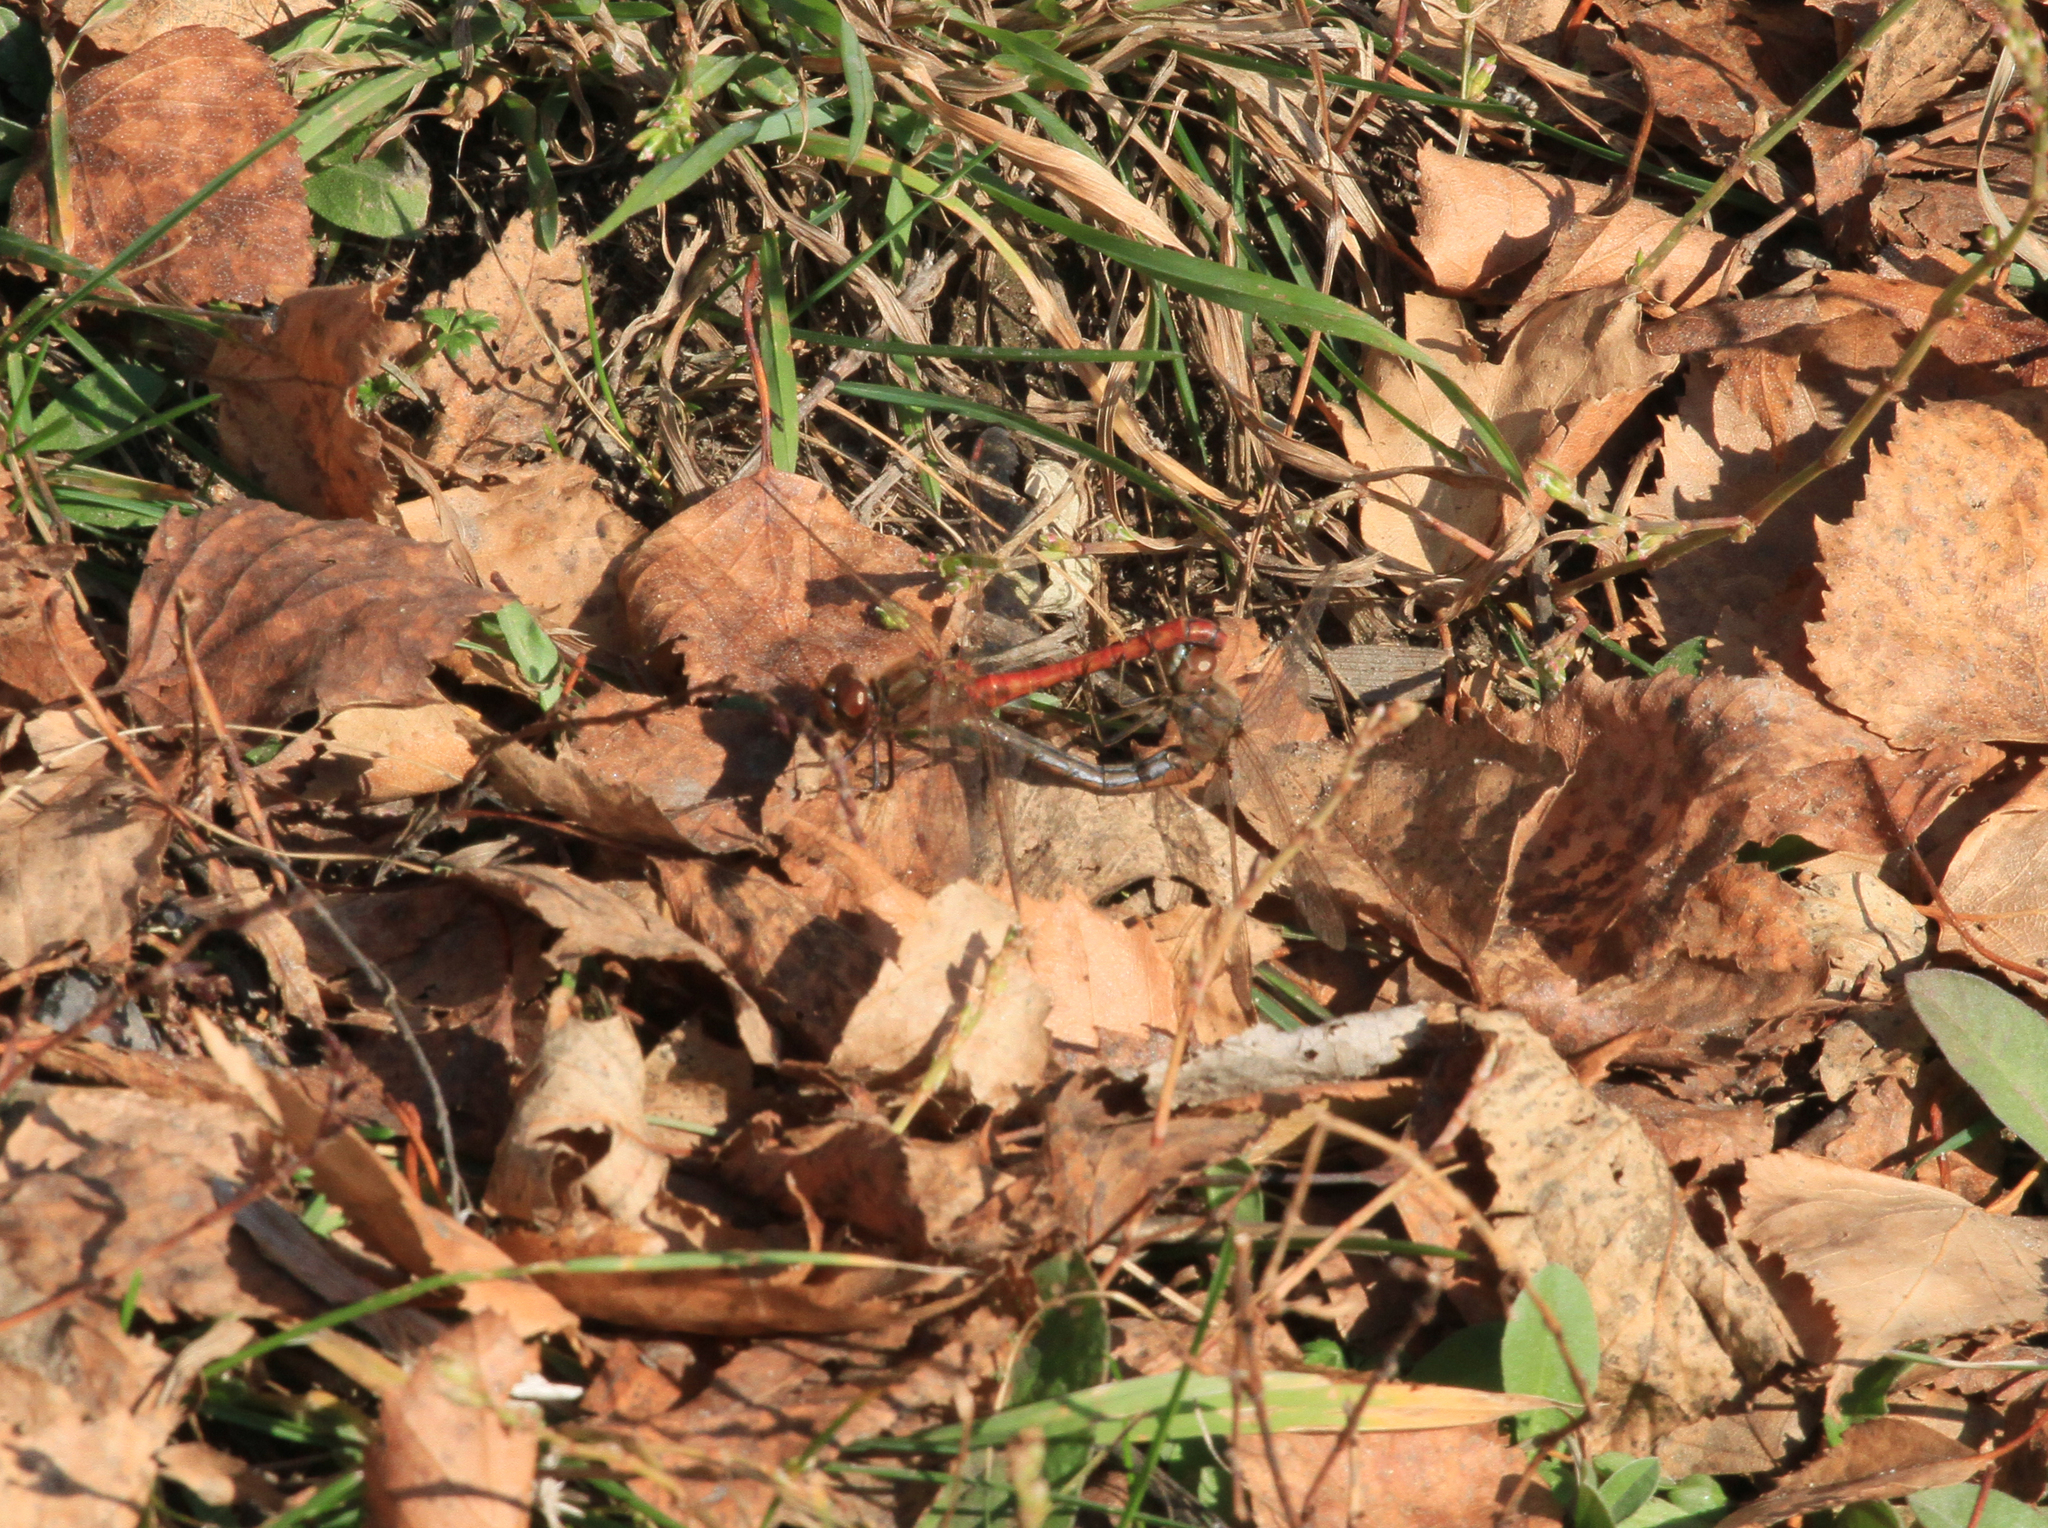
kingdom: Animalia
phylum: Arthropoda
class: Insecta
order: Odonata
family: Libellulidae
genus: Sympetrum
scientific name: Sympetrum vulgatum
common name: Vagrant darter
